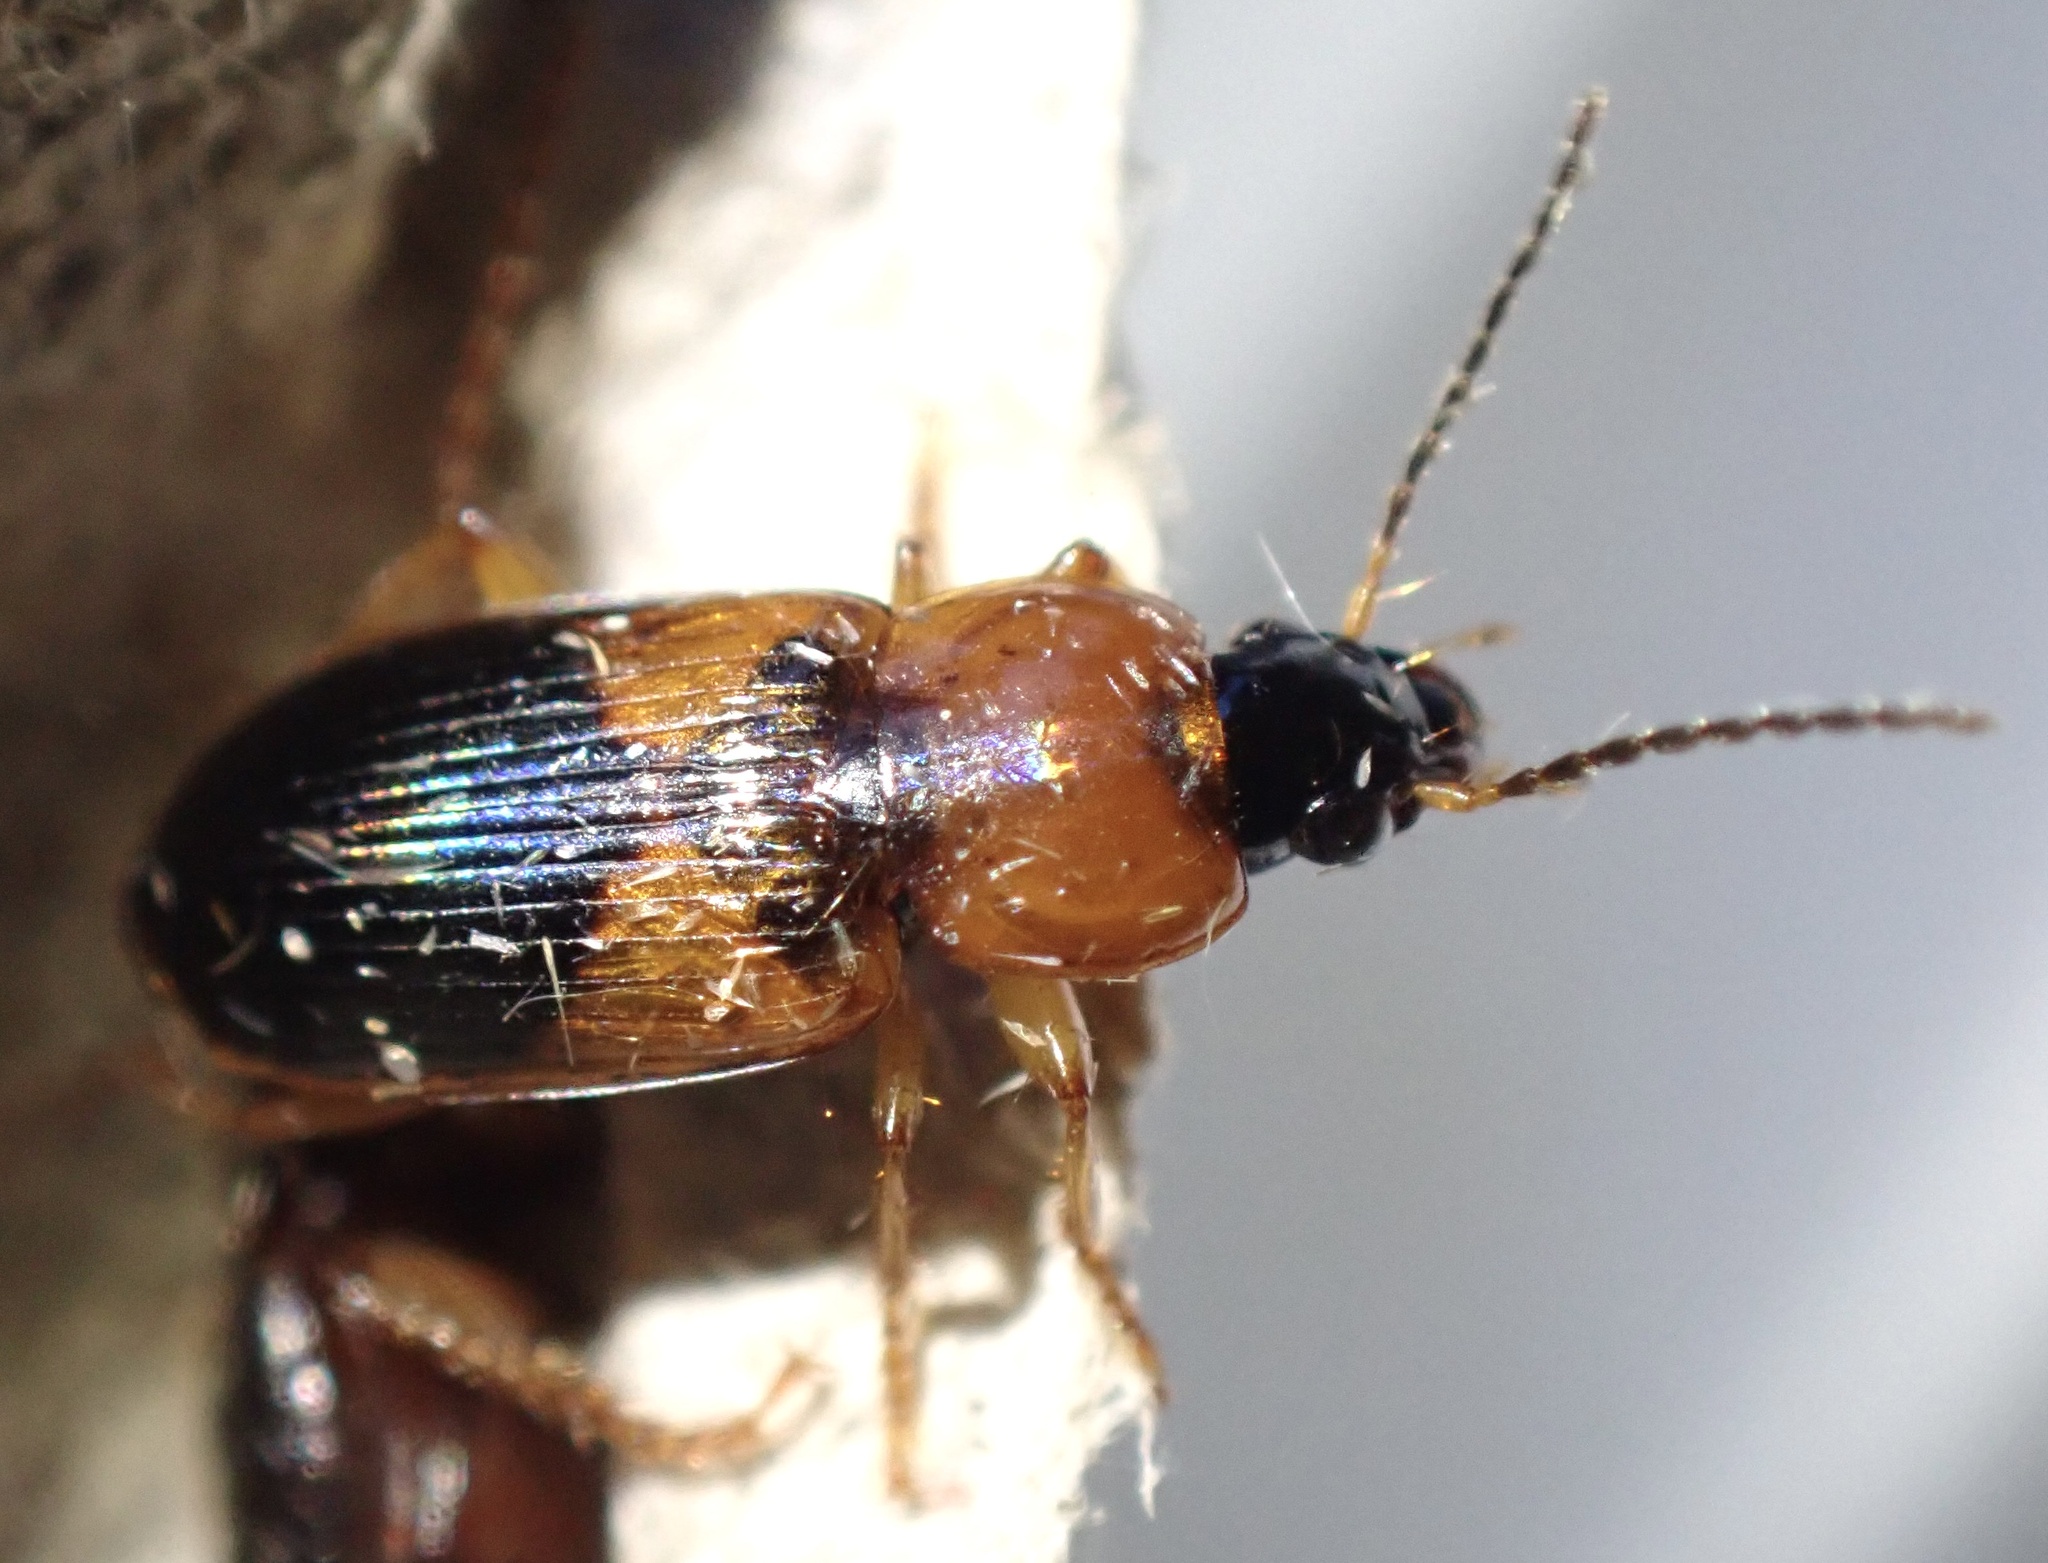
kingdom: Animalia
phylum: Arthropoda
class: Insecta
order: Coleoptera
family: Carabidae
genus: Stenolophus
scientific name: Stenolophus teutonus
